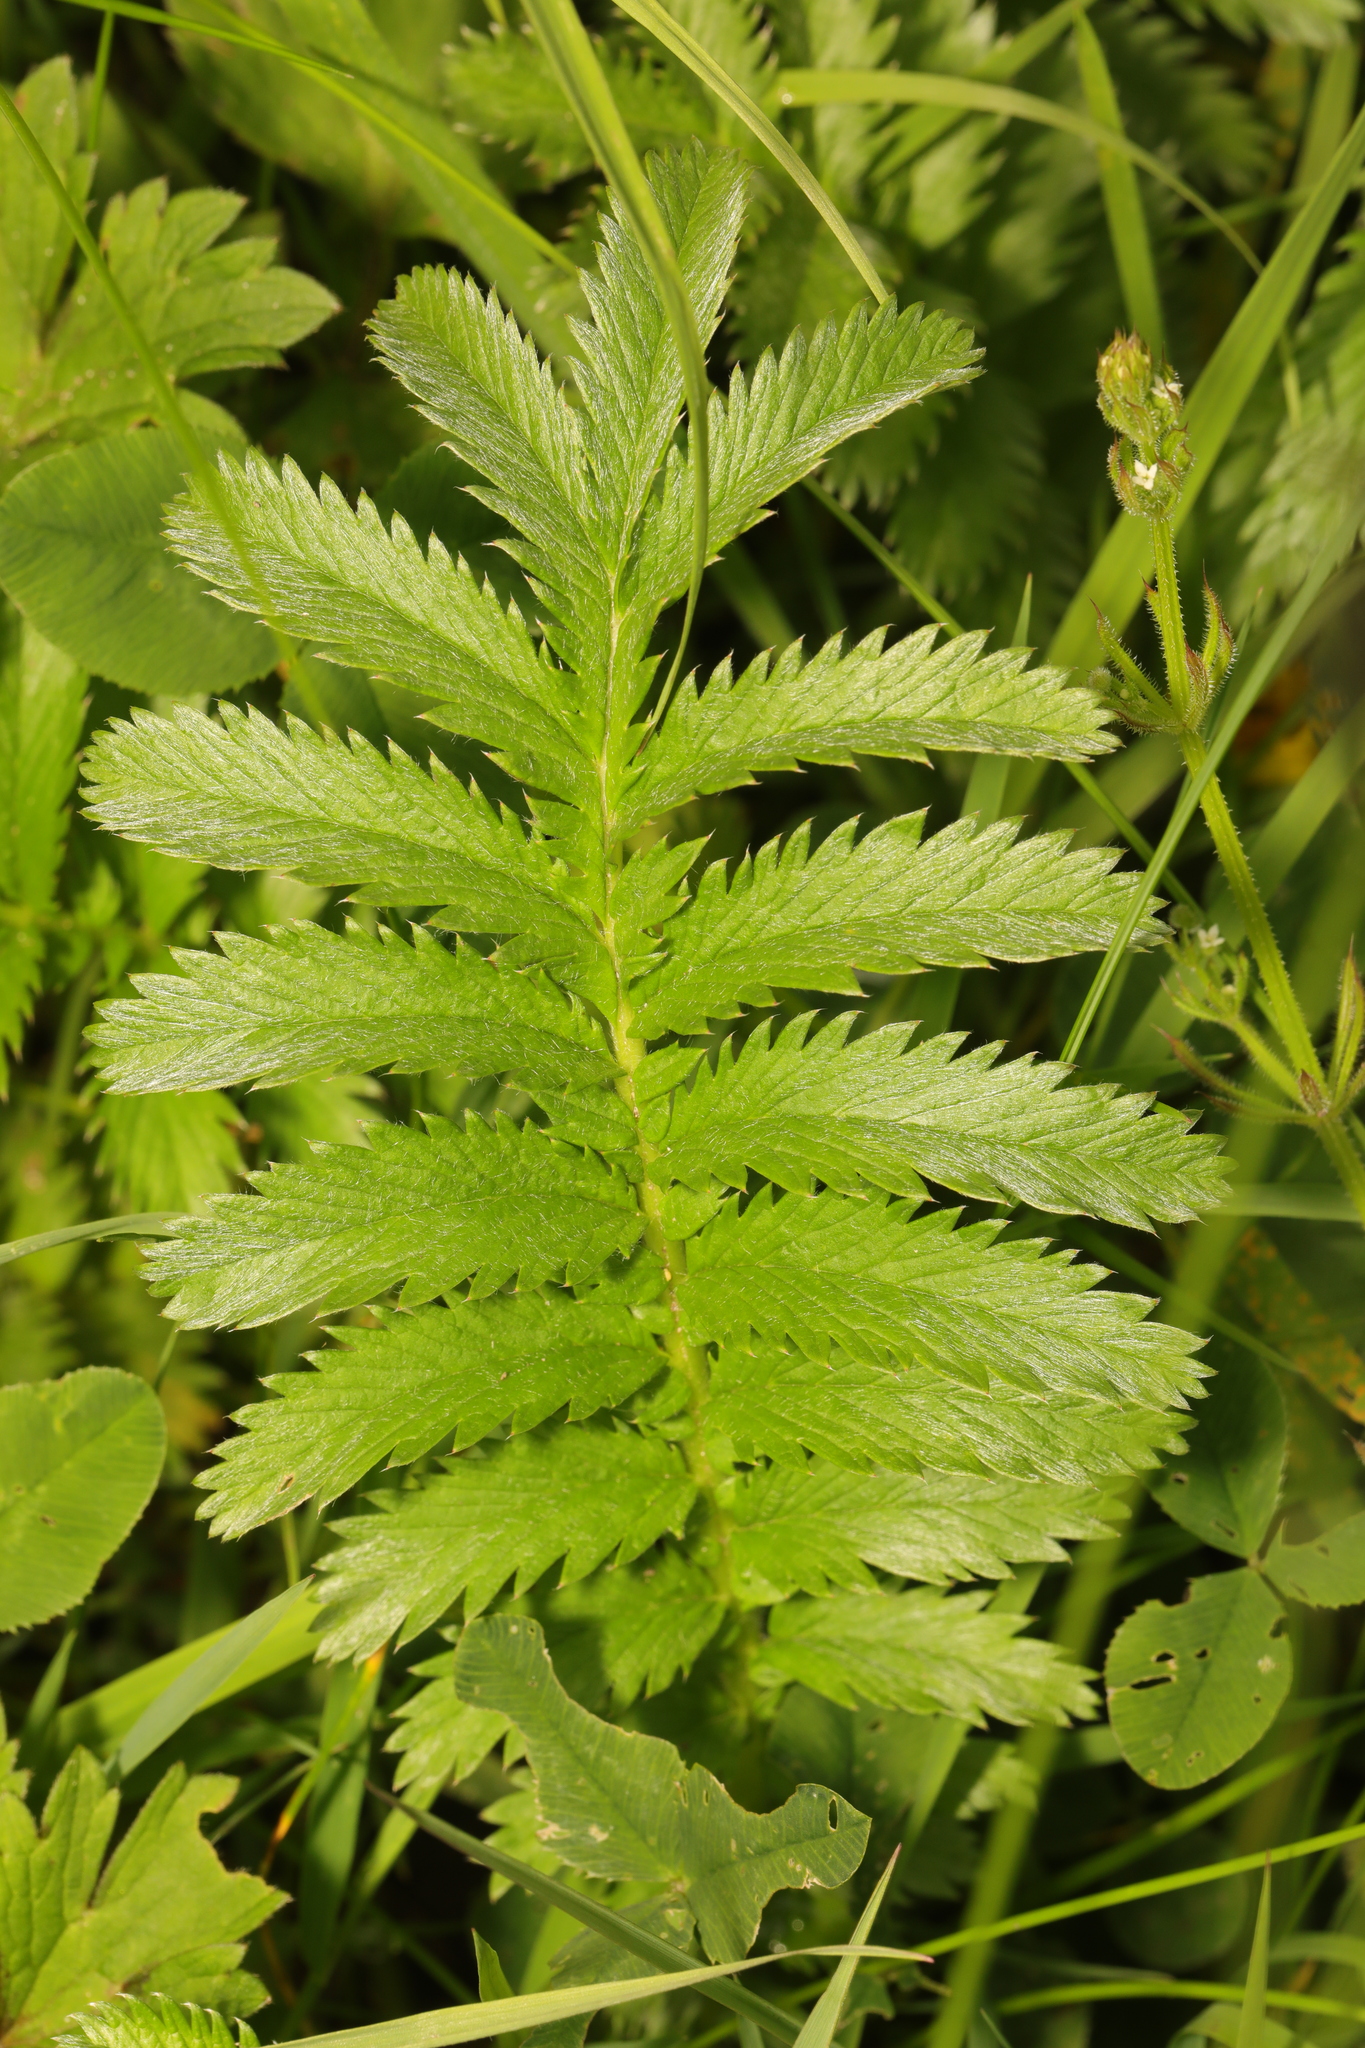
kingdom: Plantae
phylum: Tracheophyta
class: Magnoliopsida
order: Rosales
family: Rosaceae
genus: Argentina
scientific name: Argentina anserina
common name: Common silverweed
